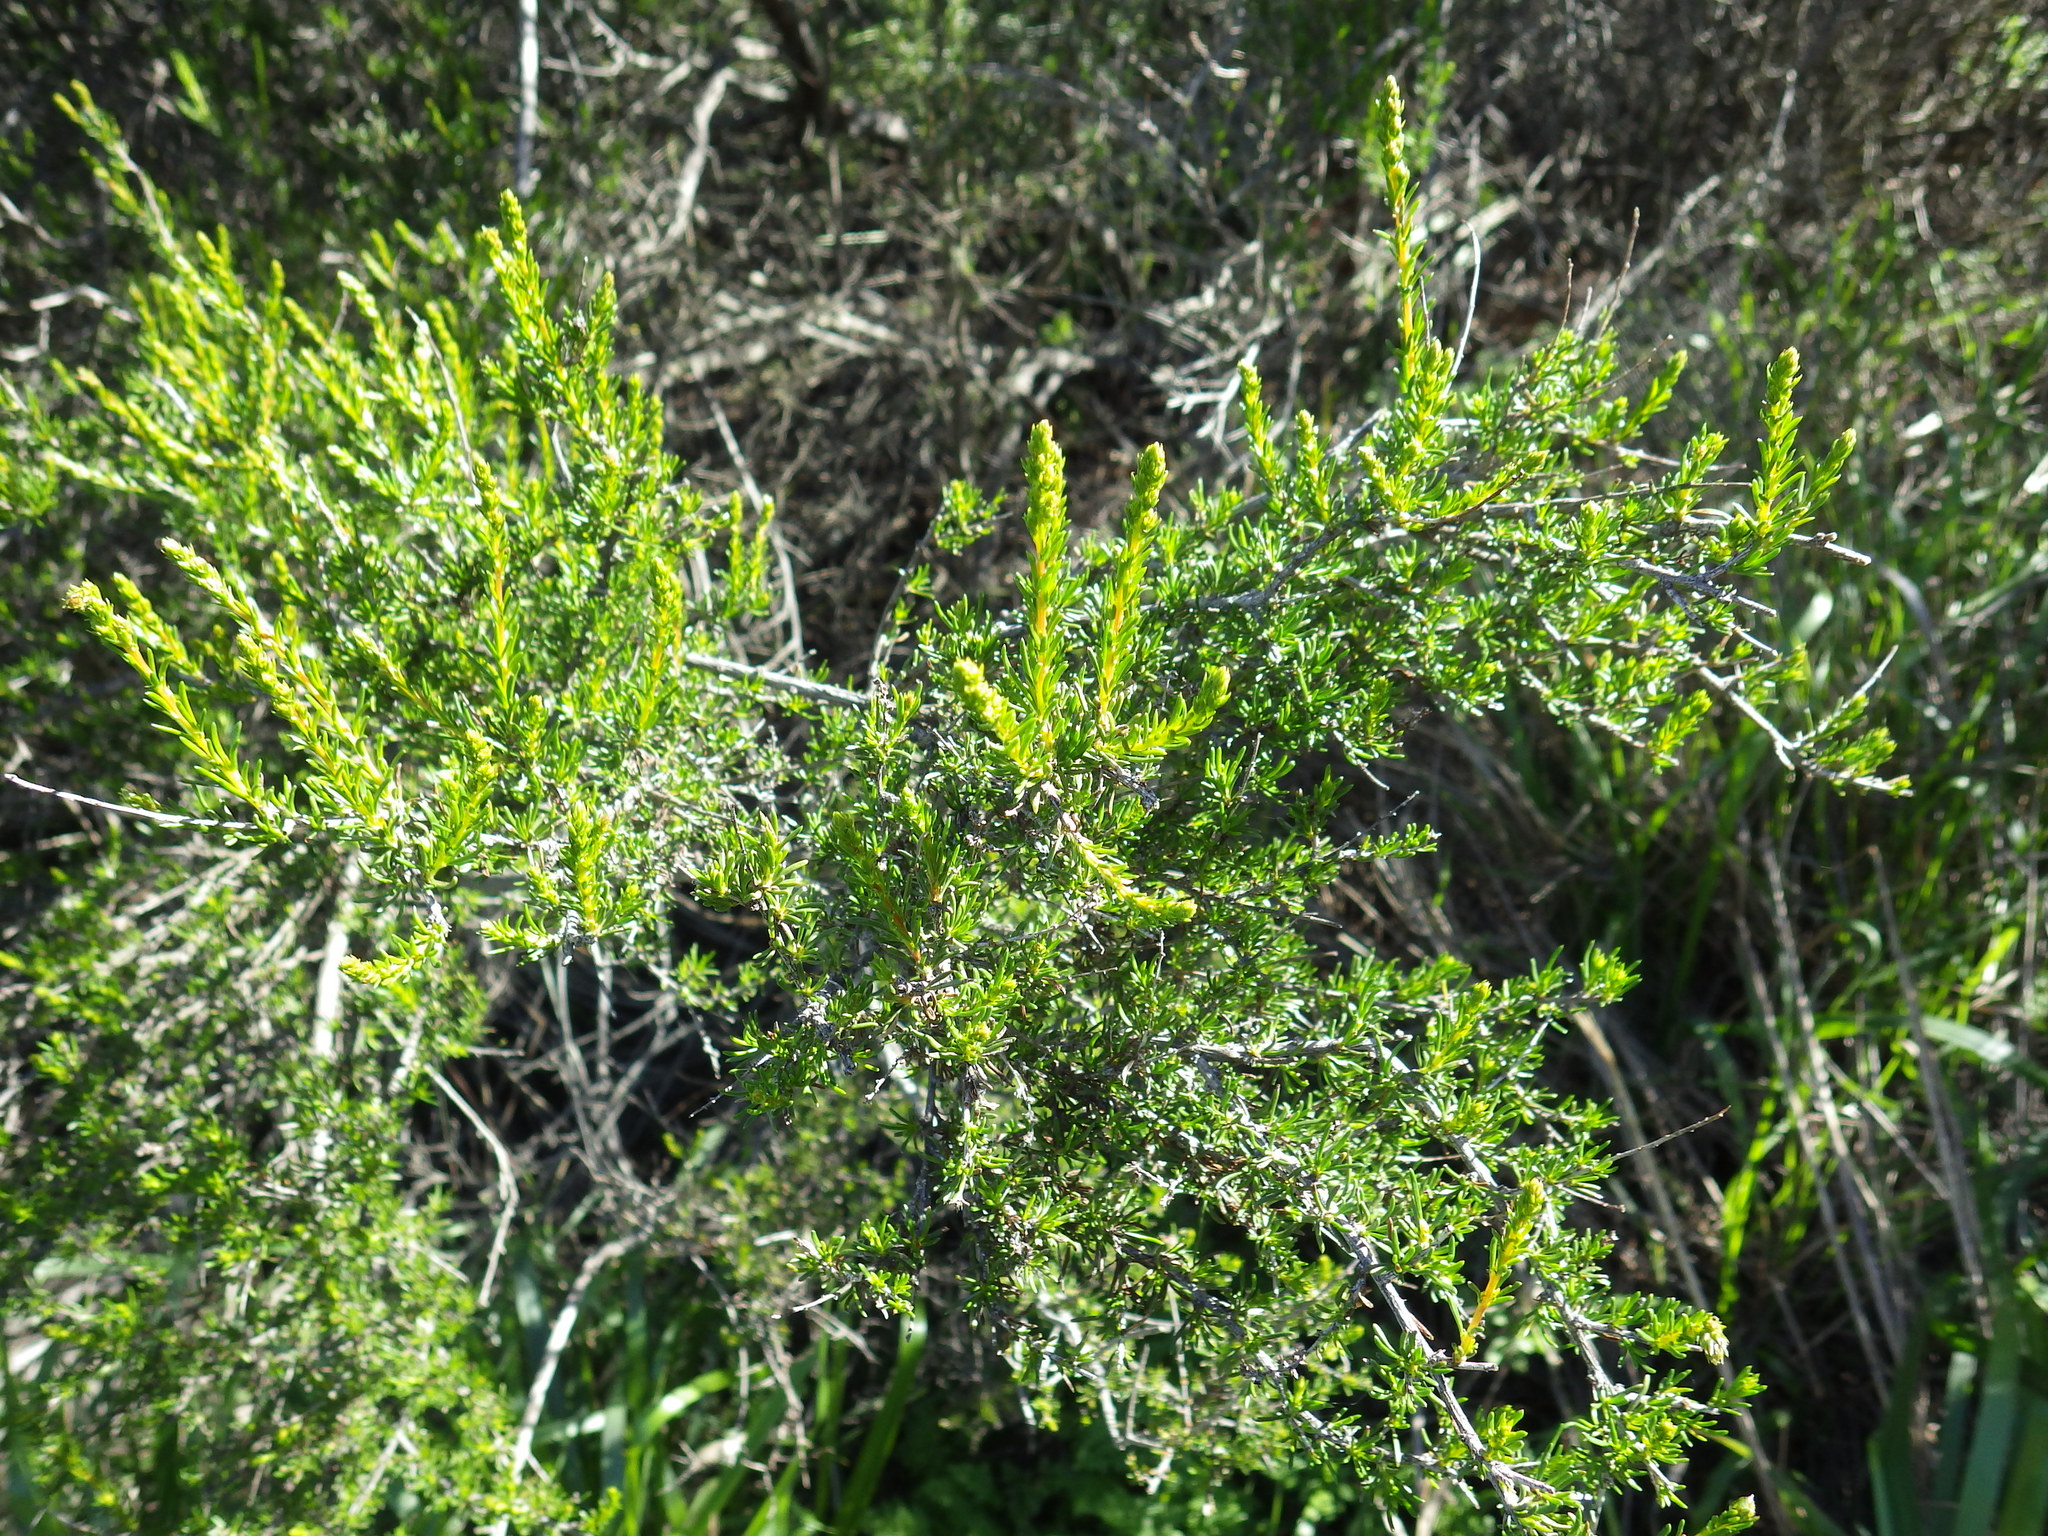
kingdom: Plantae
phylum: Tracheophyta
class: Magnoliopsida
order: Rosales
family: Rosaceae
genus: Adenostoma
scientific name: Adenostoma fasciculatum
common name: Chamise
